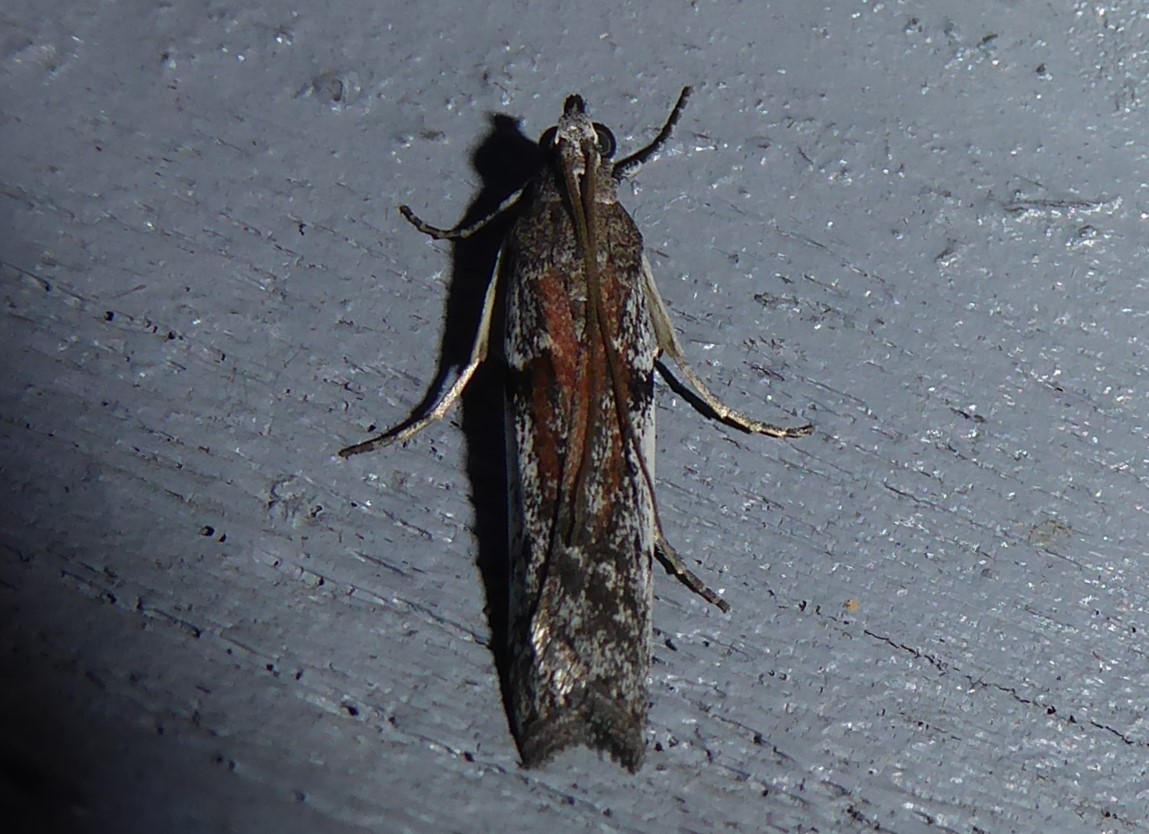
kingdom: Animalia
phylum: Arthropoda
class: Insecta
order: Lepidoptera
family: Pyralidae
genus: Patagoniodes
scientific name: Patagoniodes farinaria
